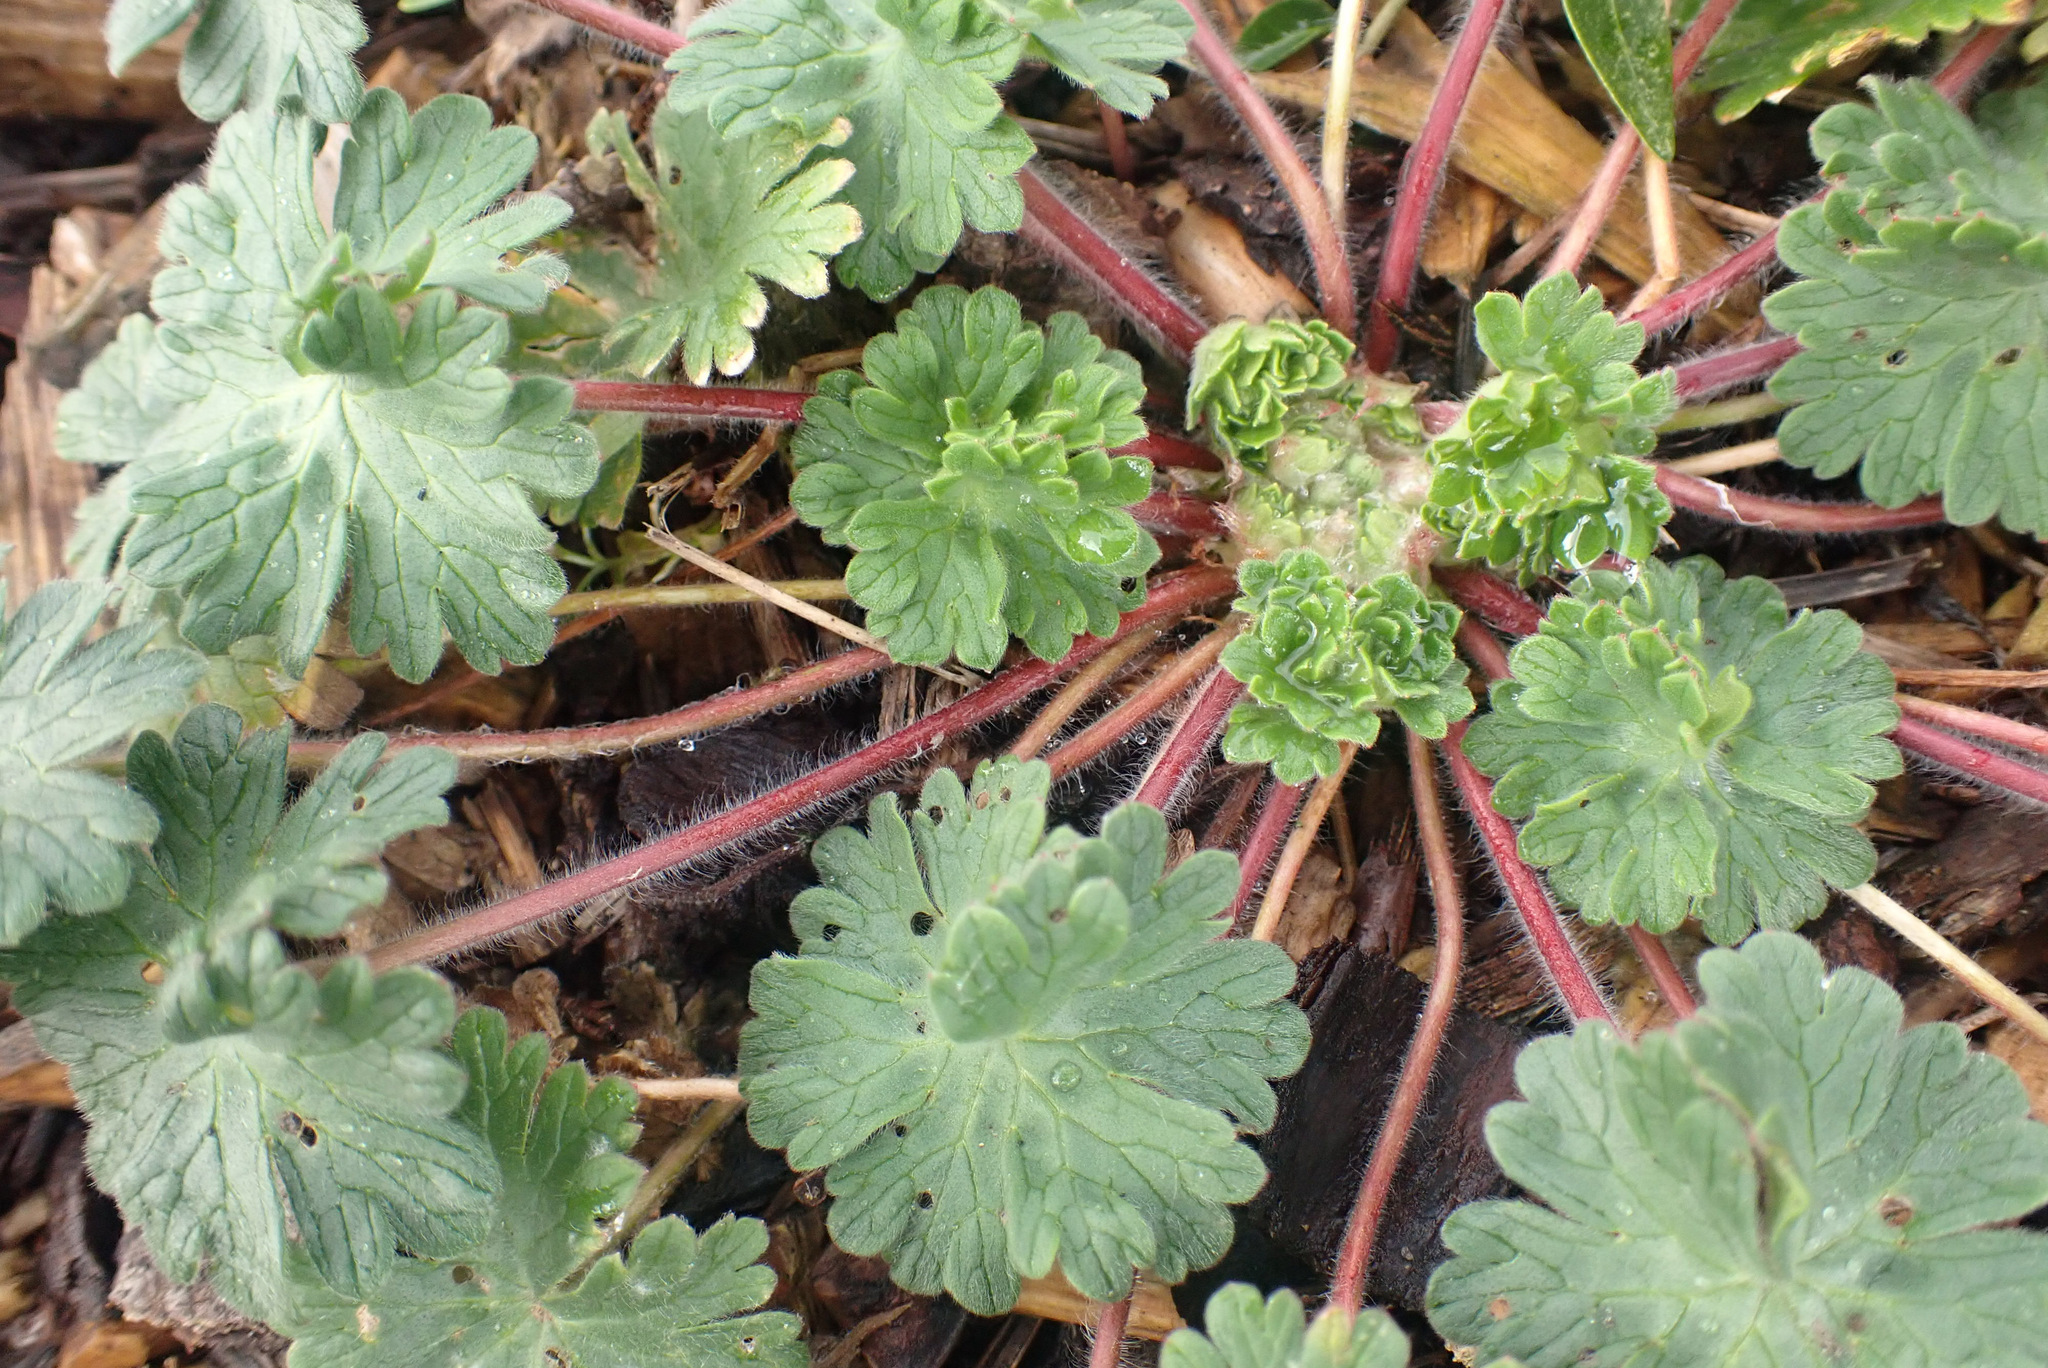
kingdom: Plantae
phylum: Tracheophyta
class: Magnoliopsida
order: Geraniales
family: Geraniaceae
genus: Geranium
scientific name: Geranium molle
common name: Dove's-foot crane's-bill
